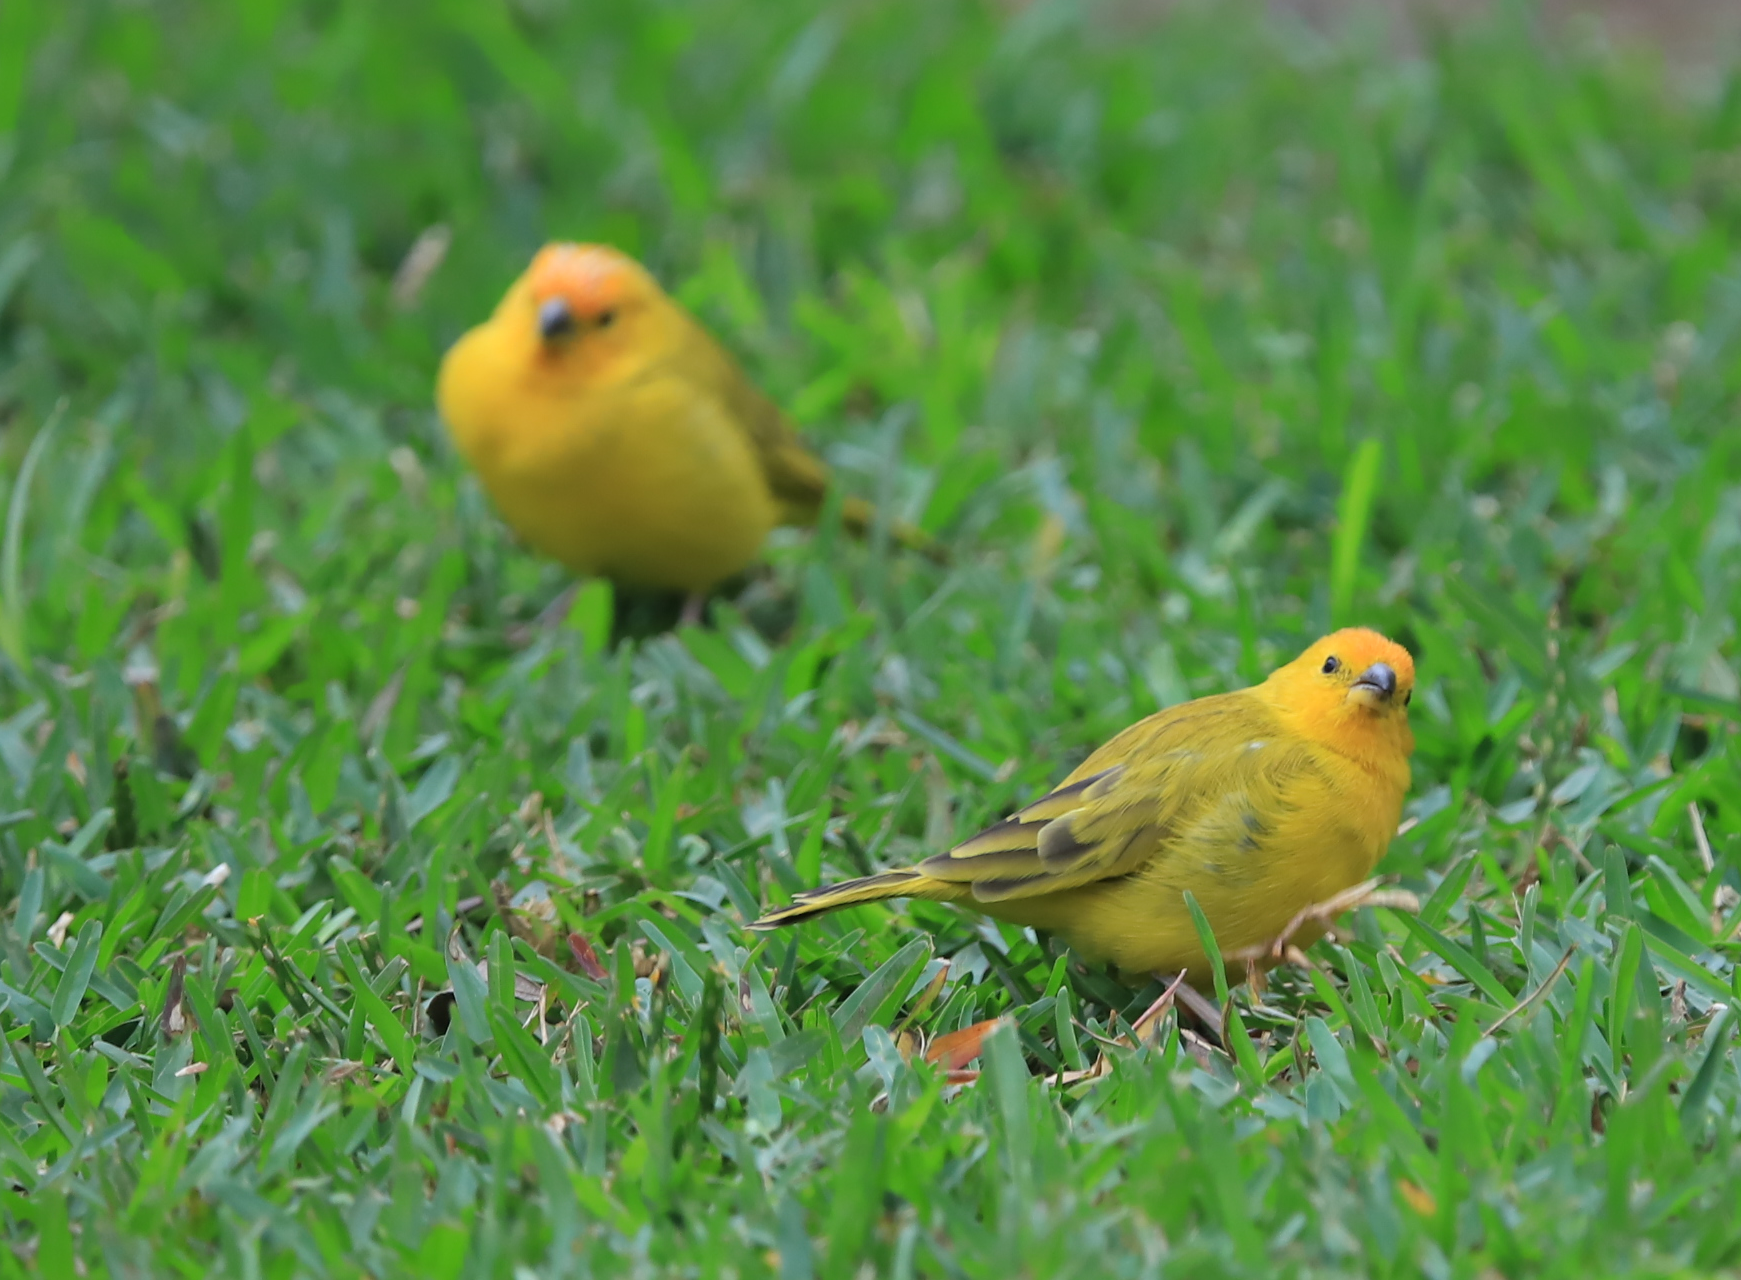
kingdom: Animalia
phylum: Chordata
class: Aves
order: Passeriformes
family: Thraupidae
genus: Sicalis
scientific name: Sicalis flaveola
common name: Saffron finch
